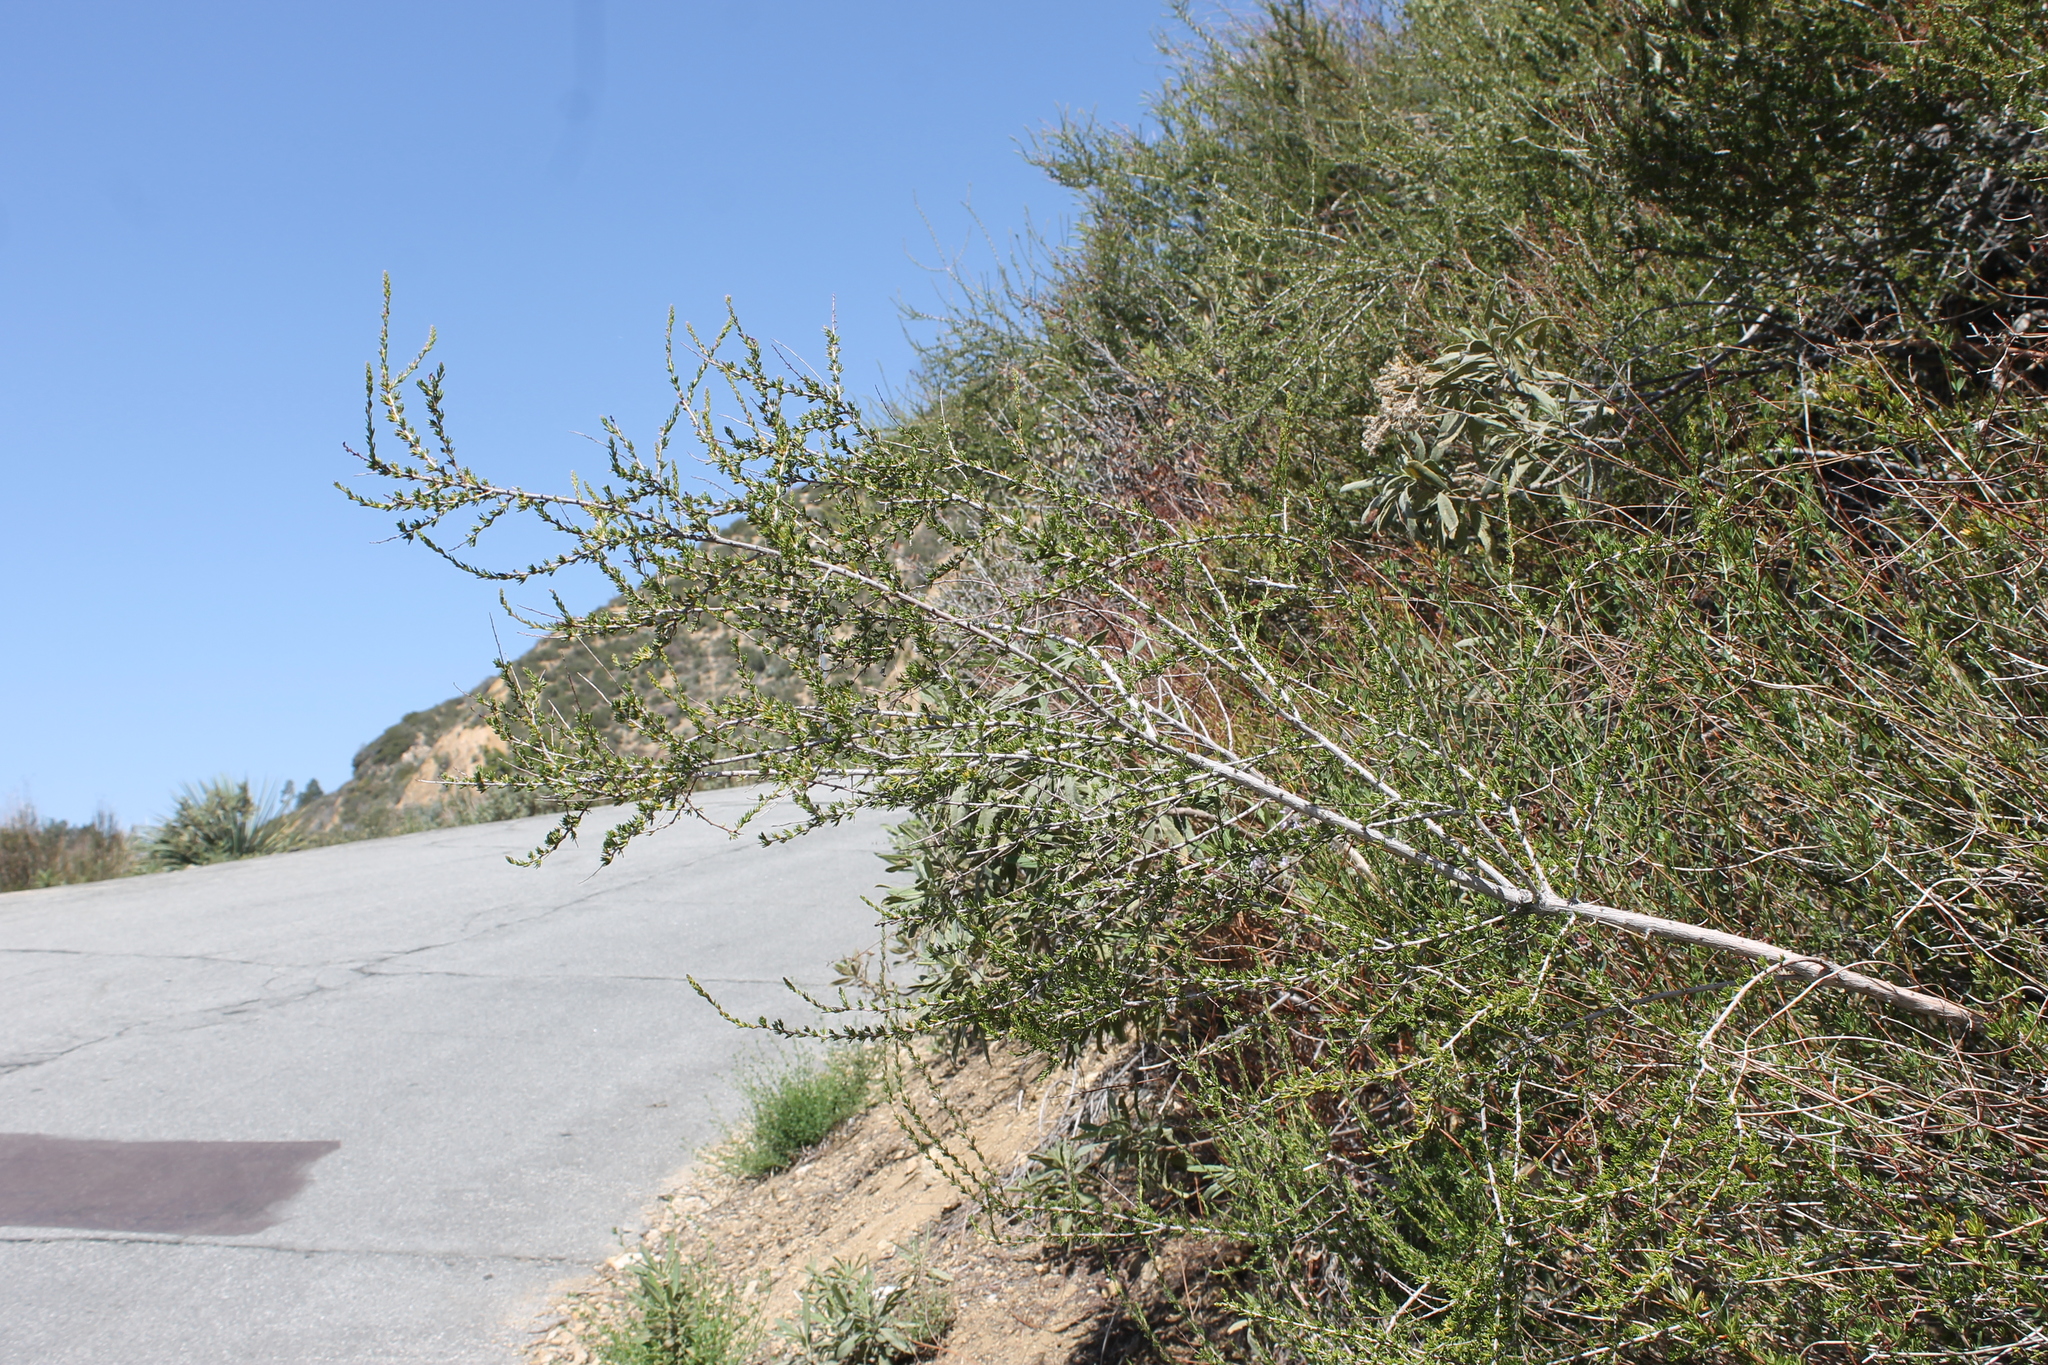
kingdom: Plantae
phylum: Tracheophyta
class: Magnoliopsida
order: Rosales
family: Rosaceae
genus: Adenostoma
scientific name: Adenostoma fasciculatum
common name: Chamise
